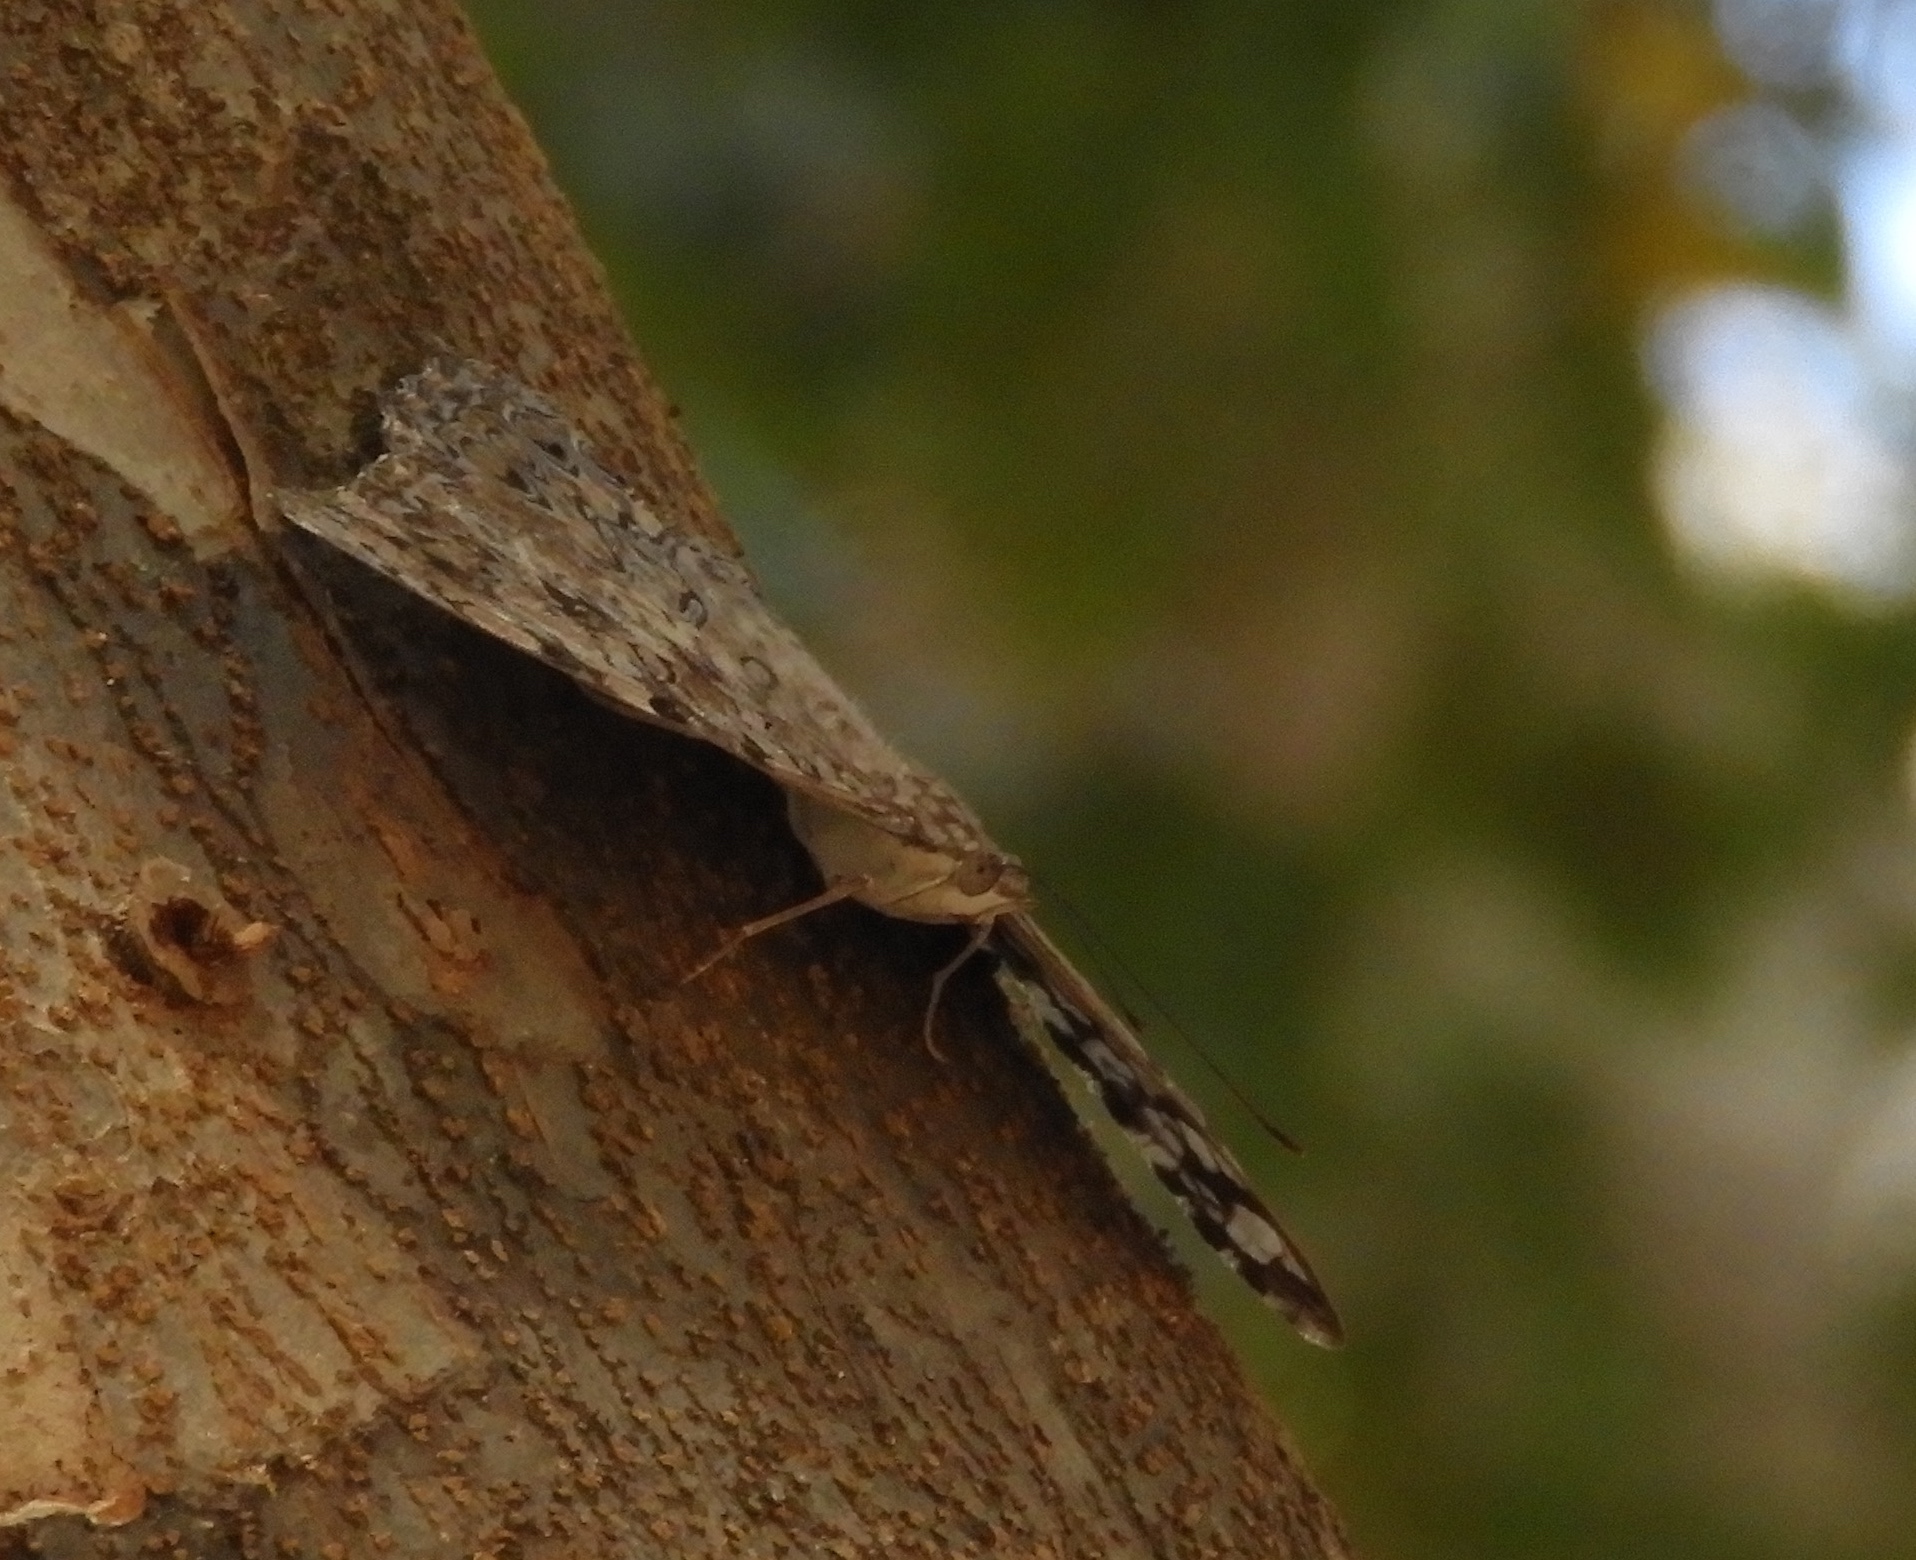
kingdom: Animalia
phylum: Arthropoda
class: Insecta
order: Lepidoptera
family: Nymphalidae
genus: Hamadryas
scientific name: Hamadryas februa
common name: Gray cracker
